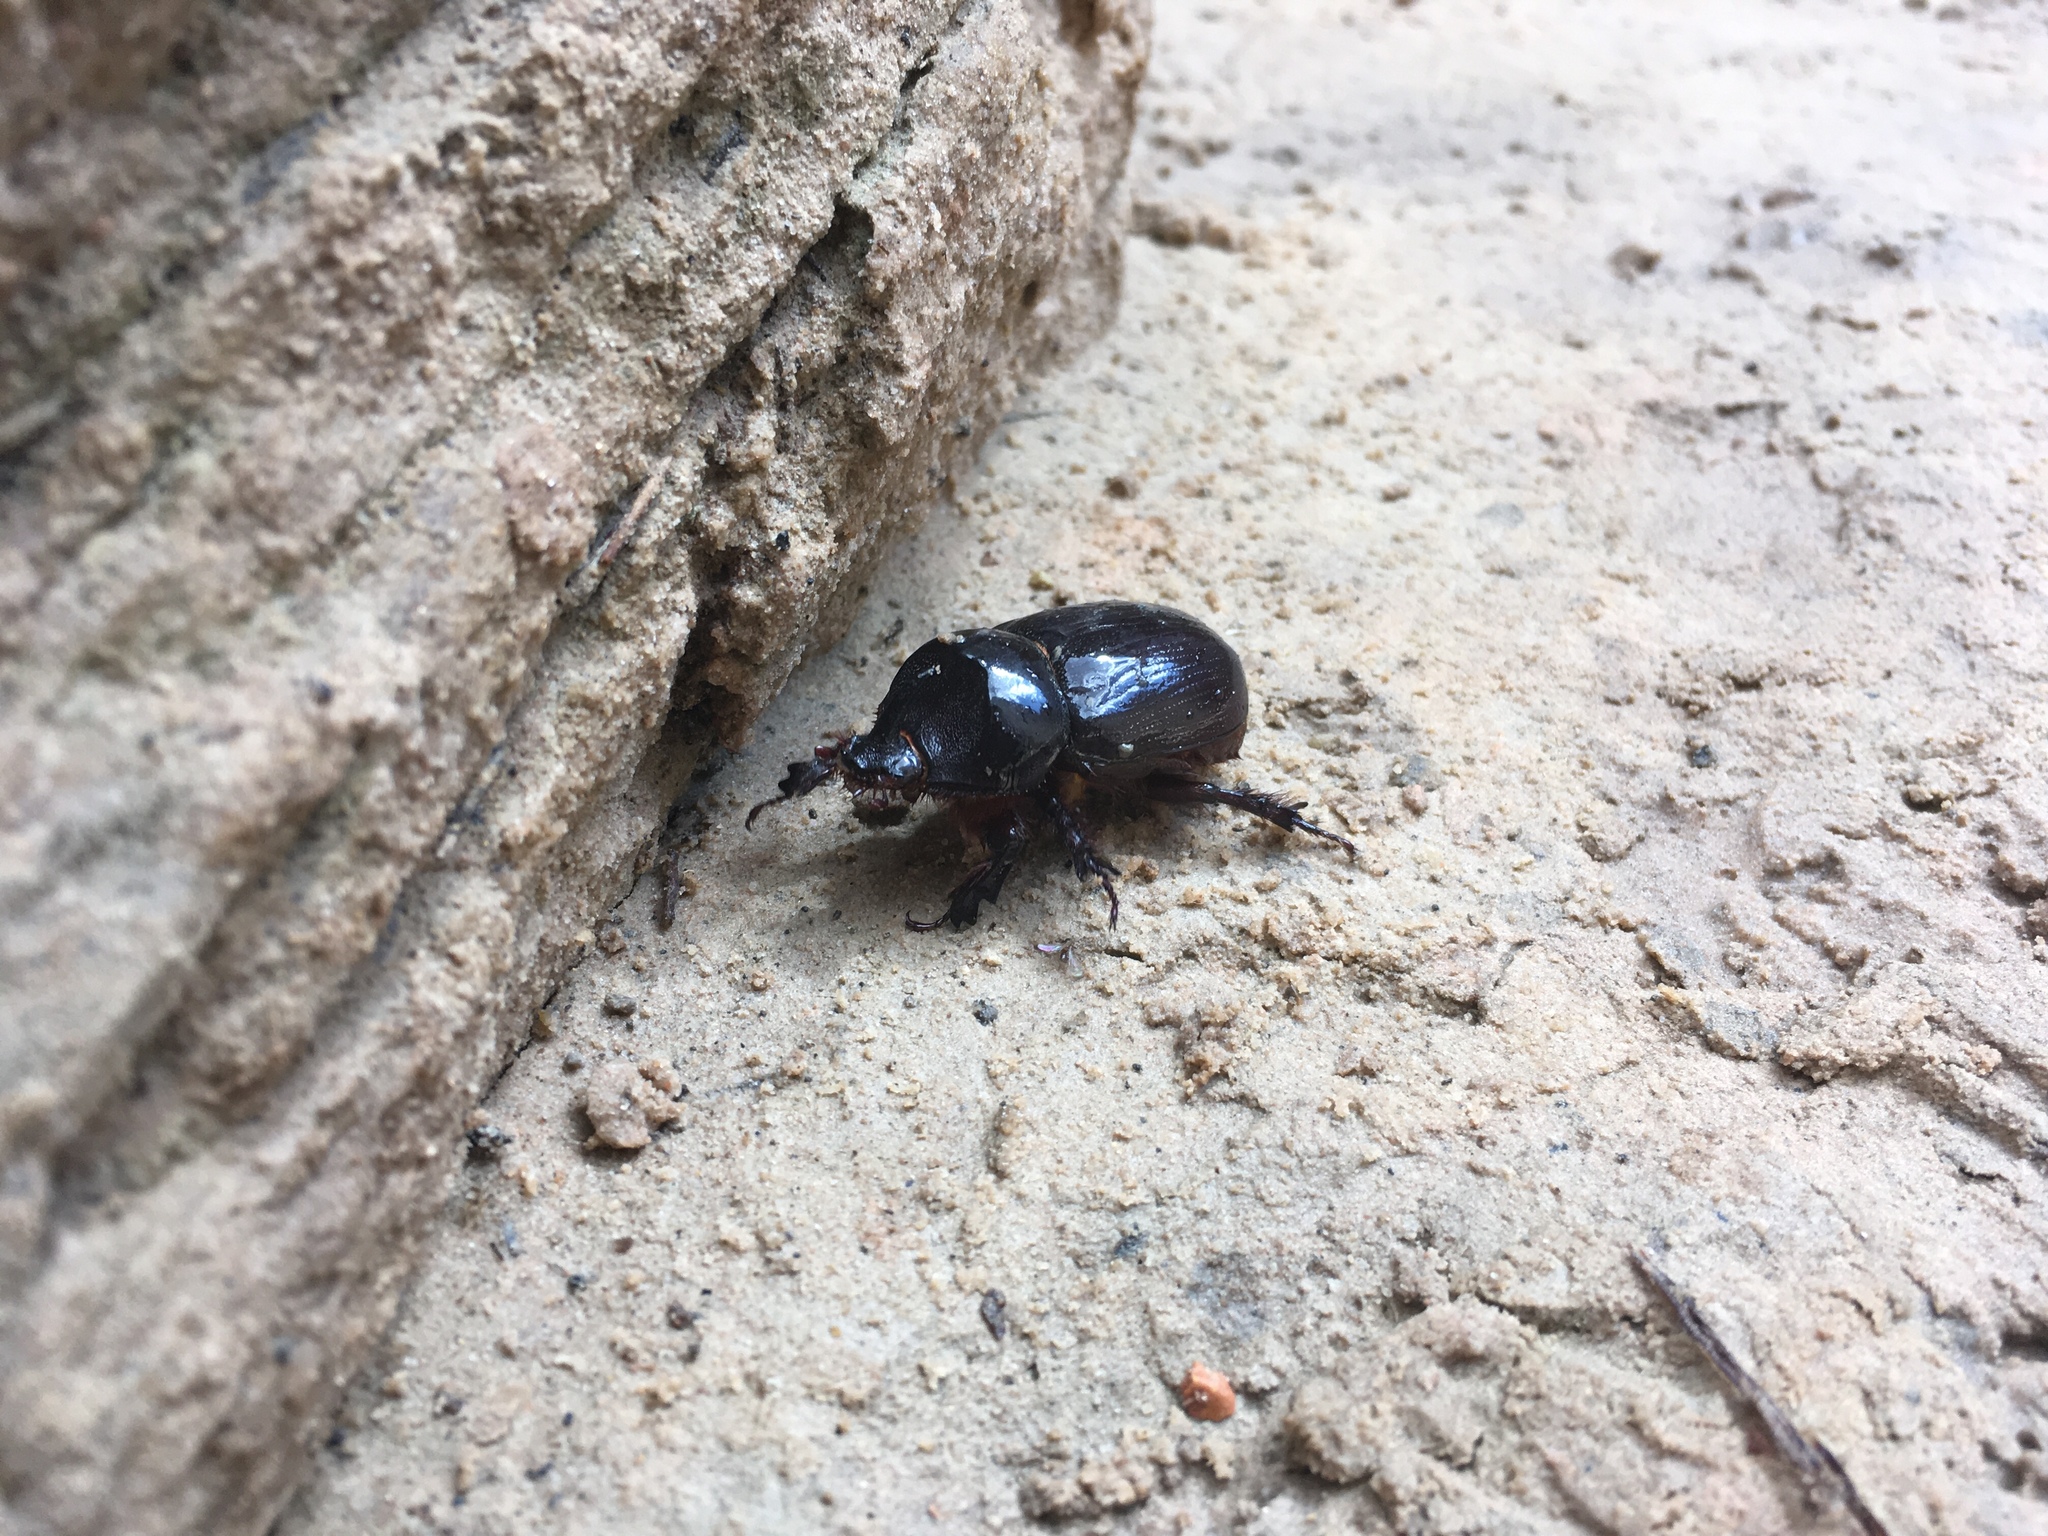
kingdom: Animalia
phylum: Arthropoda
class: Insecta
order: Coleoptera
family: Scarabaeidae
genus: Xyloryctes
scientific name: Xyloryctes thestalus
